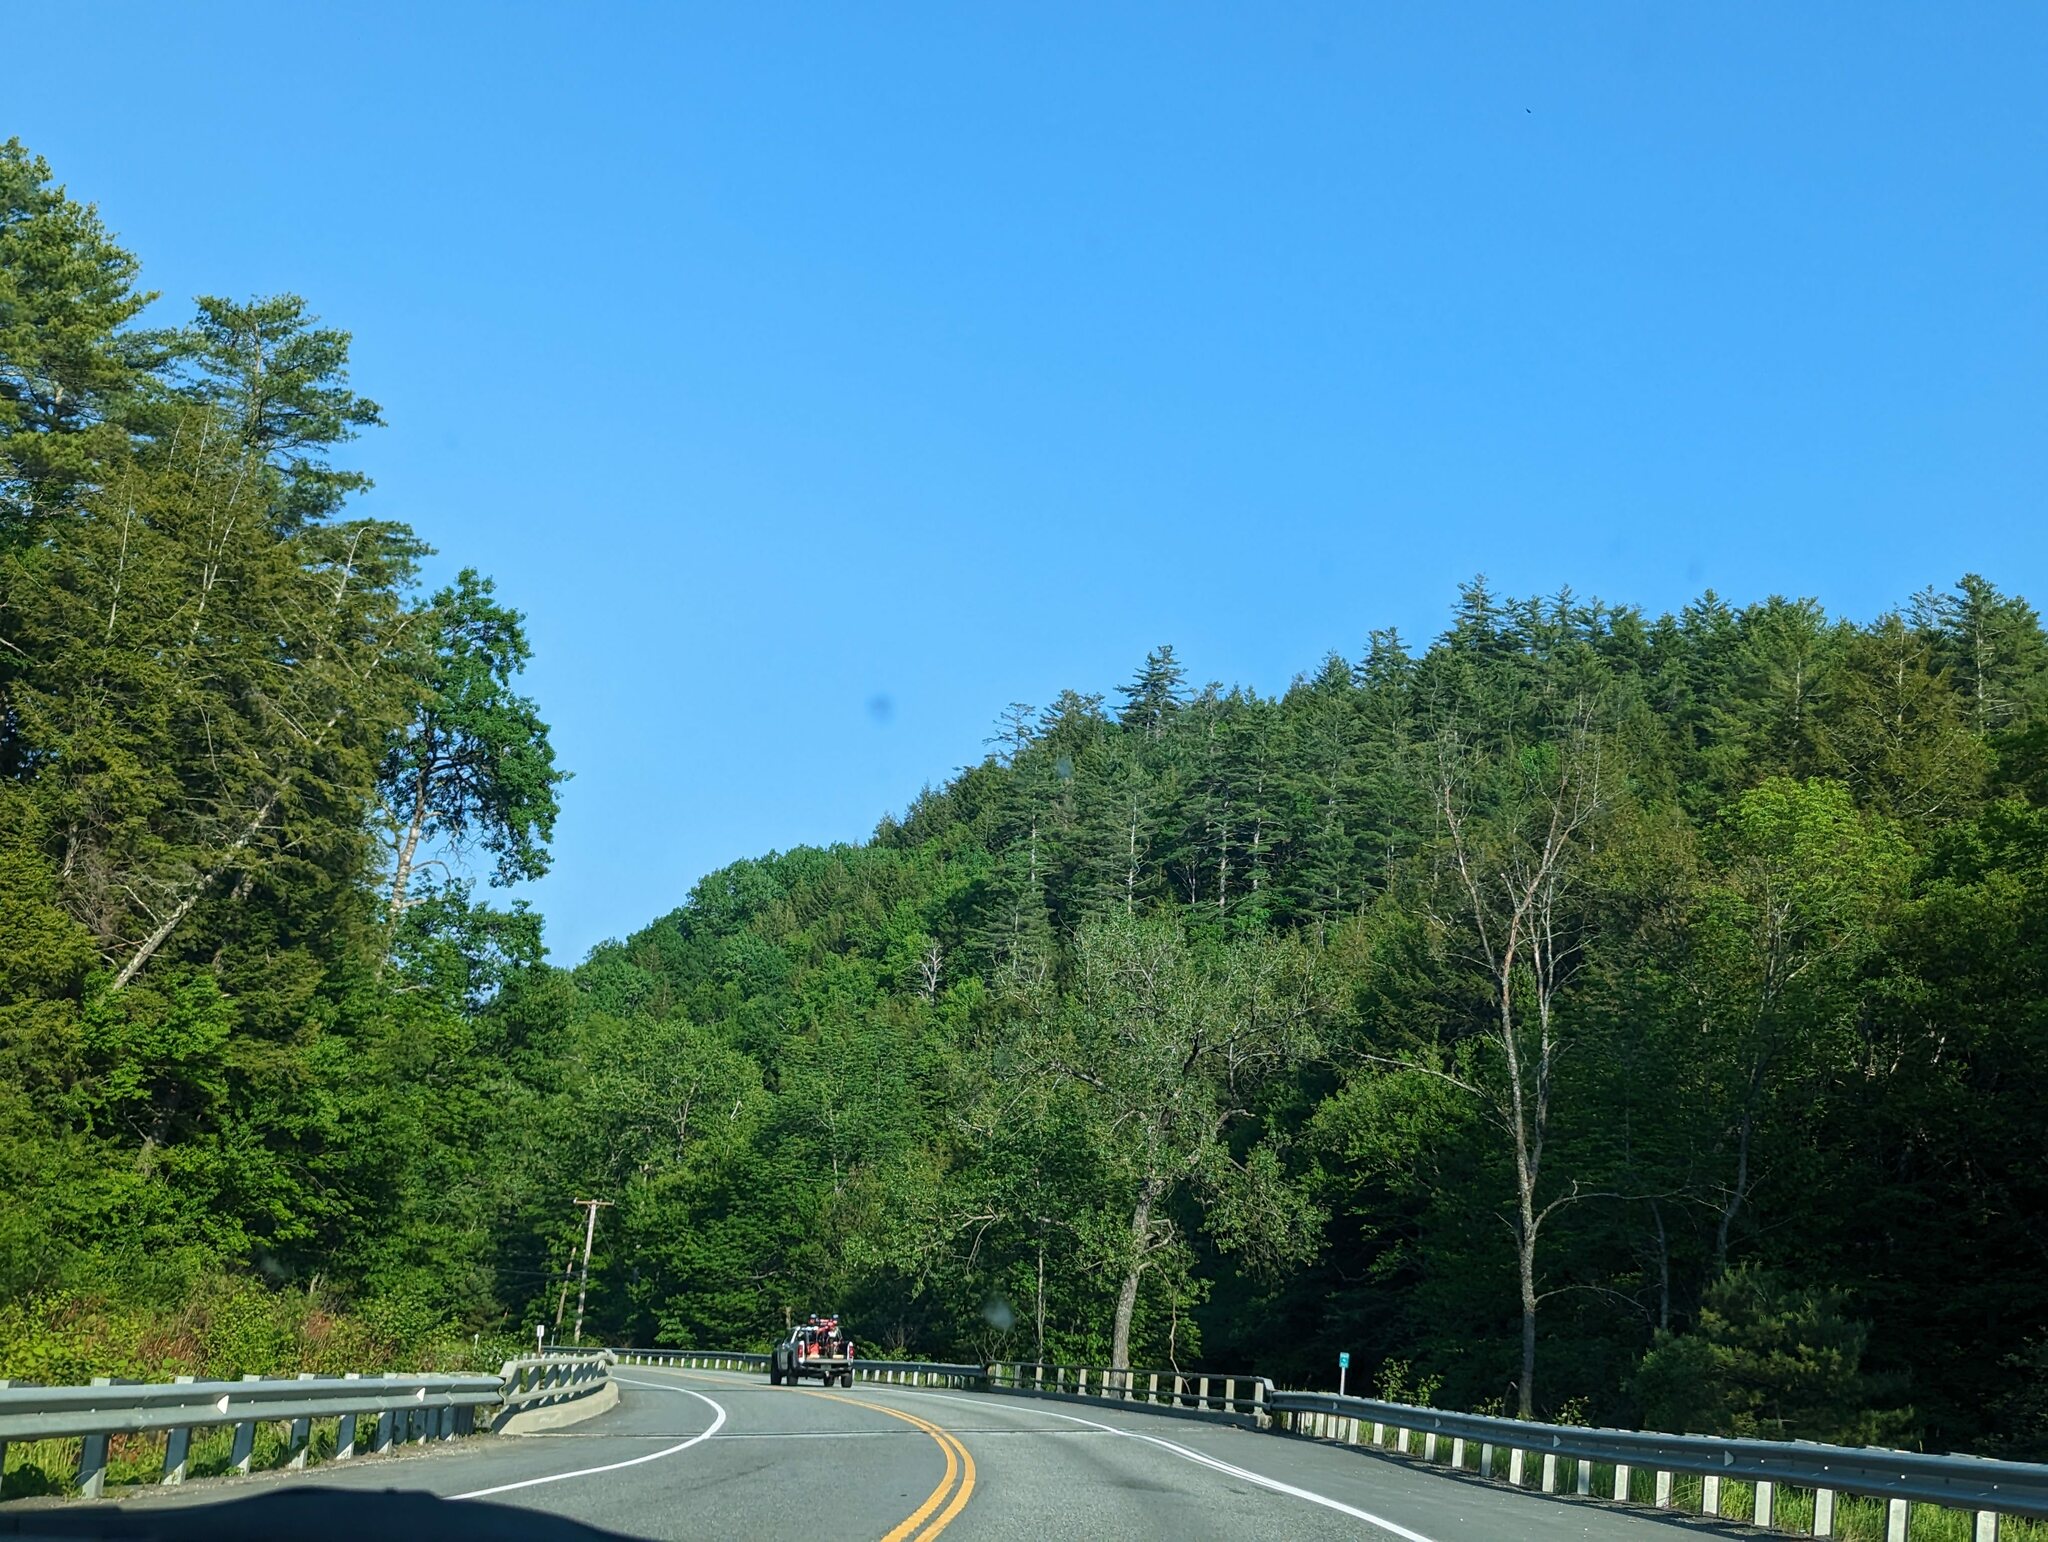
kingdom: Plantae
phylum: Tracheophyta
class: Pinopsida
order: Pinales
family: Pinaceae
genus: Pinus
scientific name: Pinus strobus
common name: Weymouth pine
